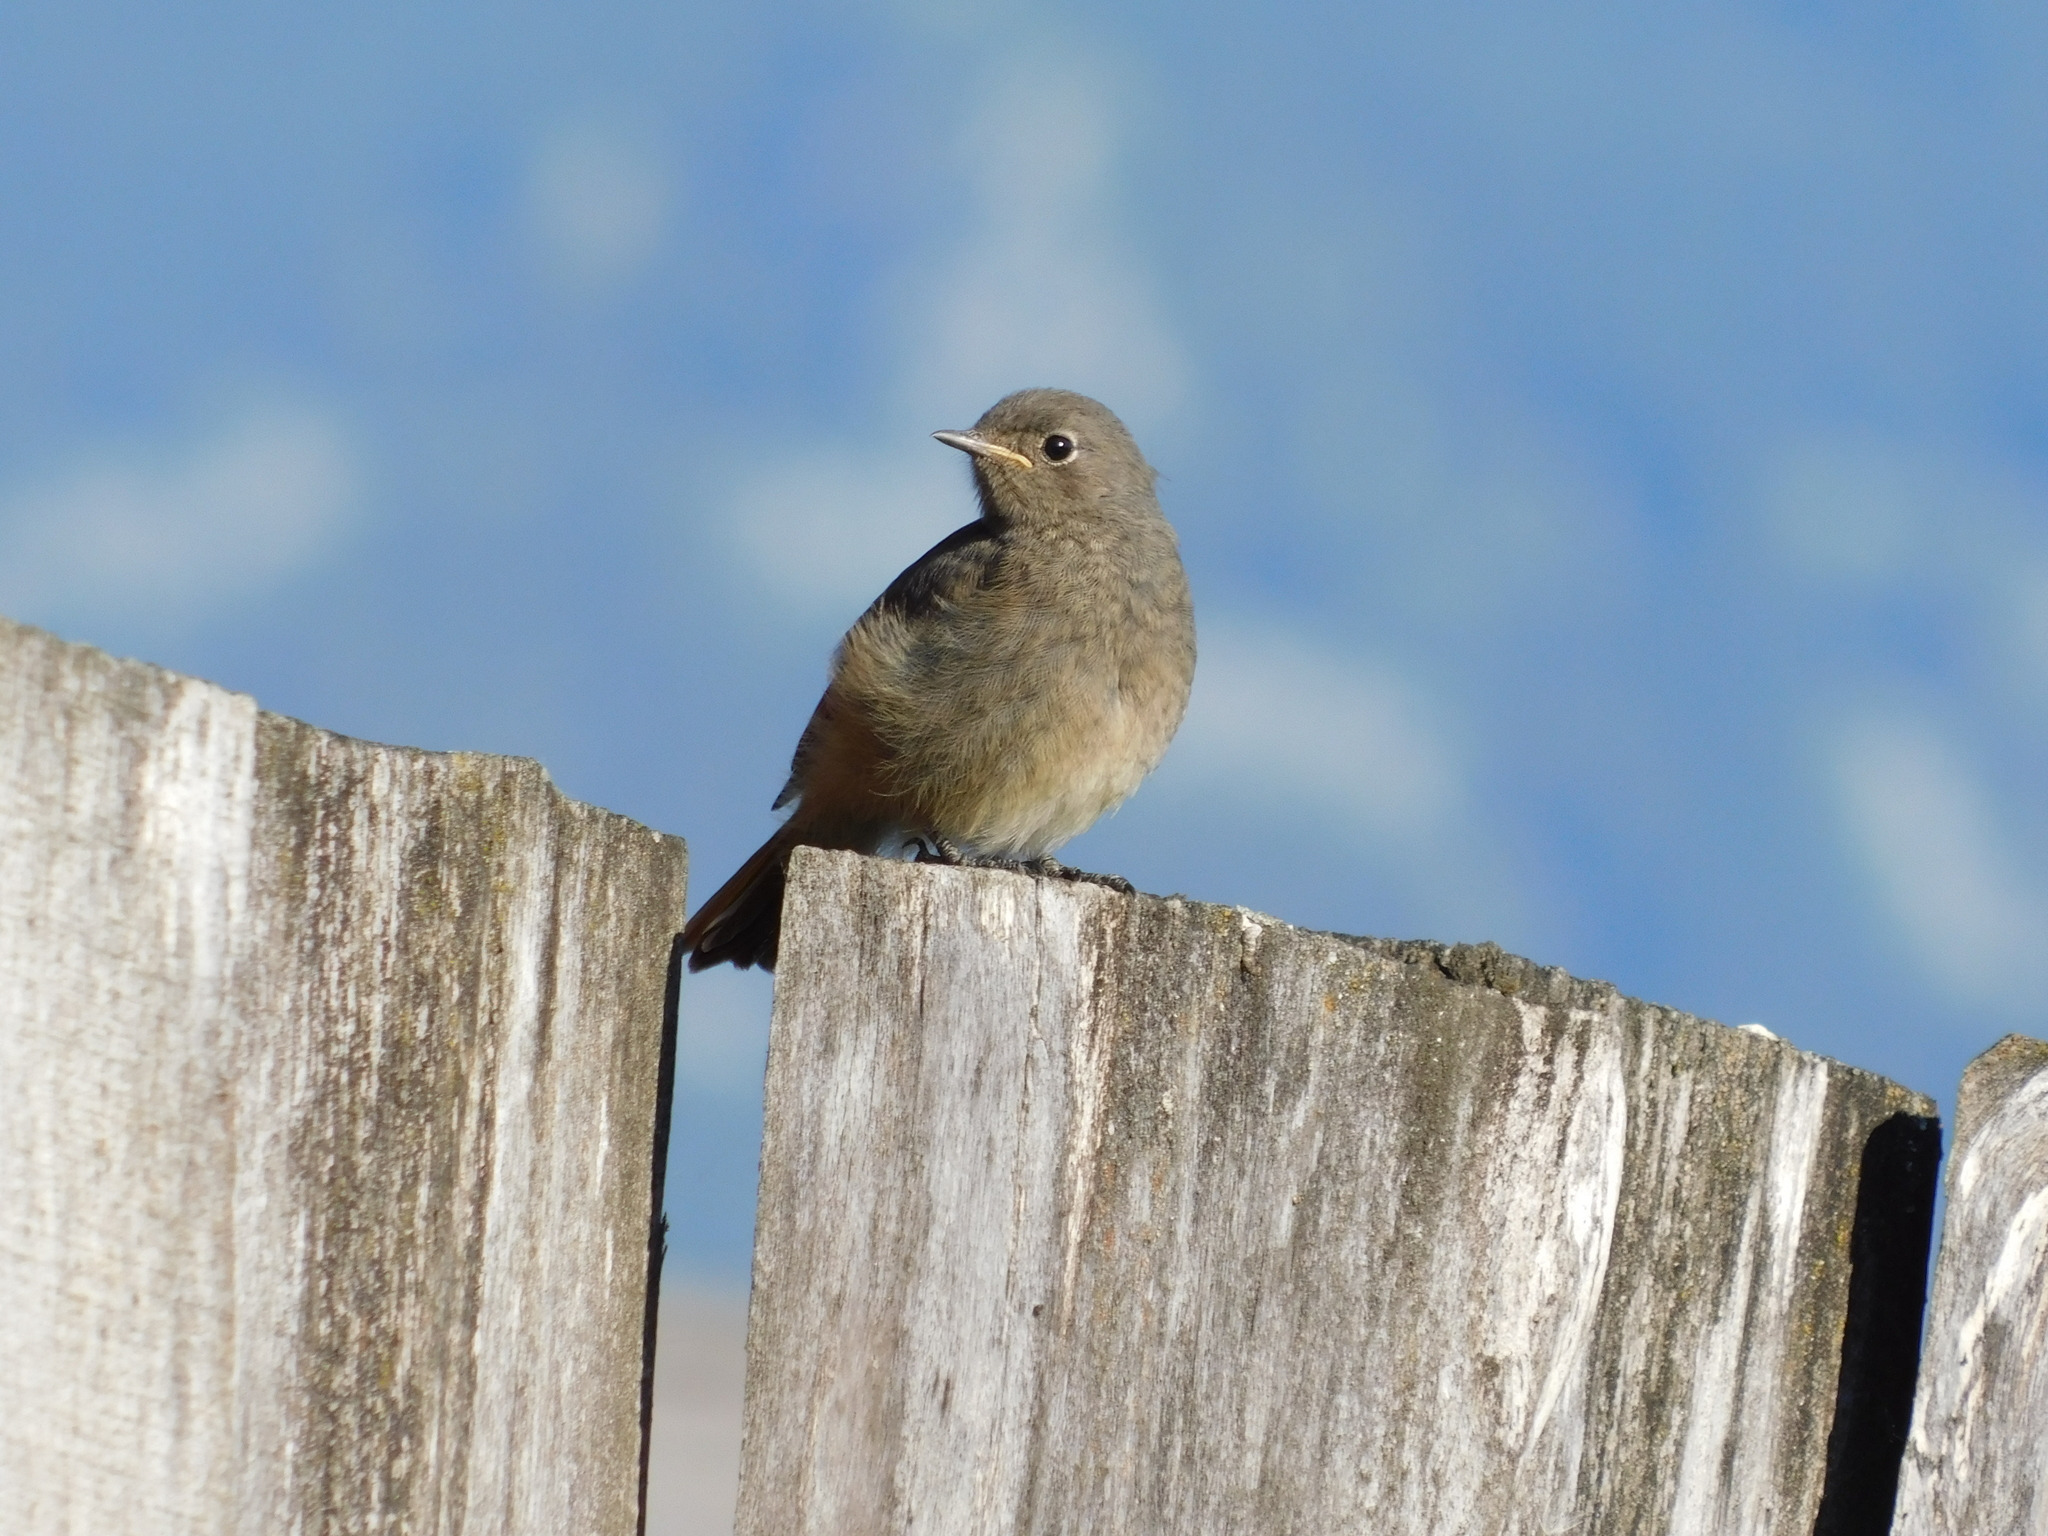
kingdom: Animalia
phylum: Chordata
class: Aves
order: Passeriformes
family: Muscicapidae
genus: Phoenicurus
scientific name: Phoenicurus ochruros
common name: Black redstart
